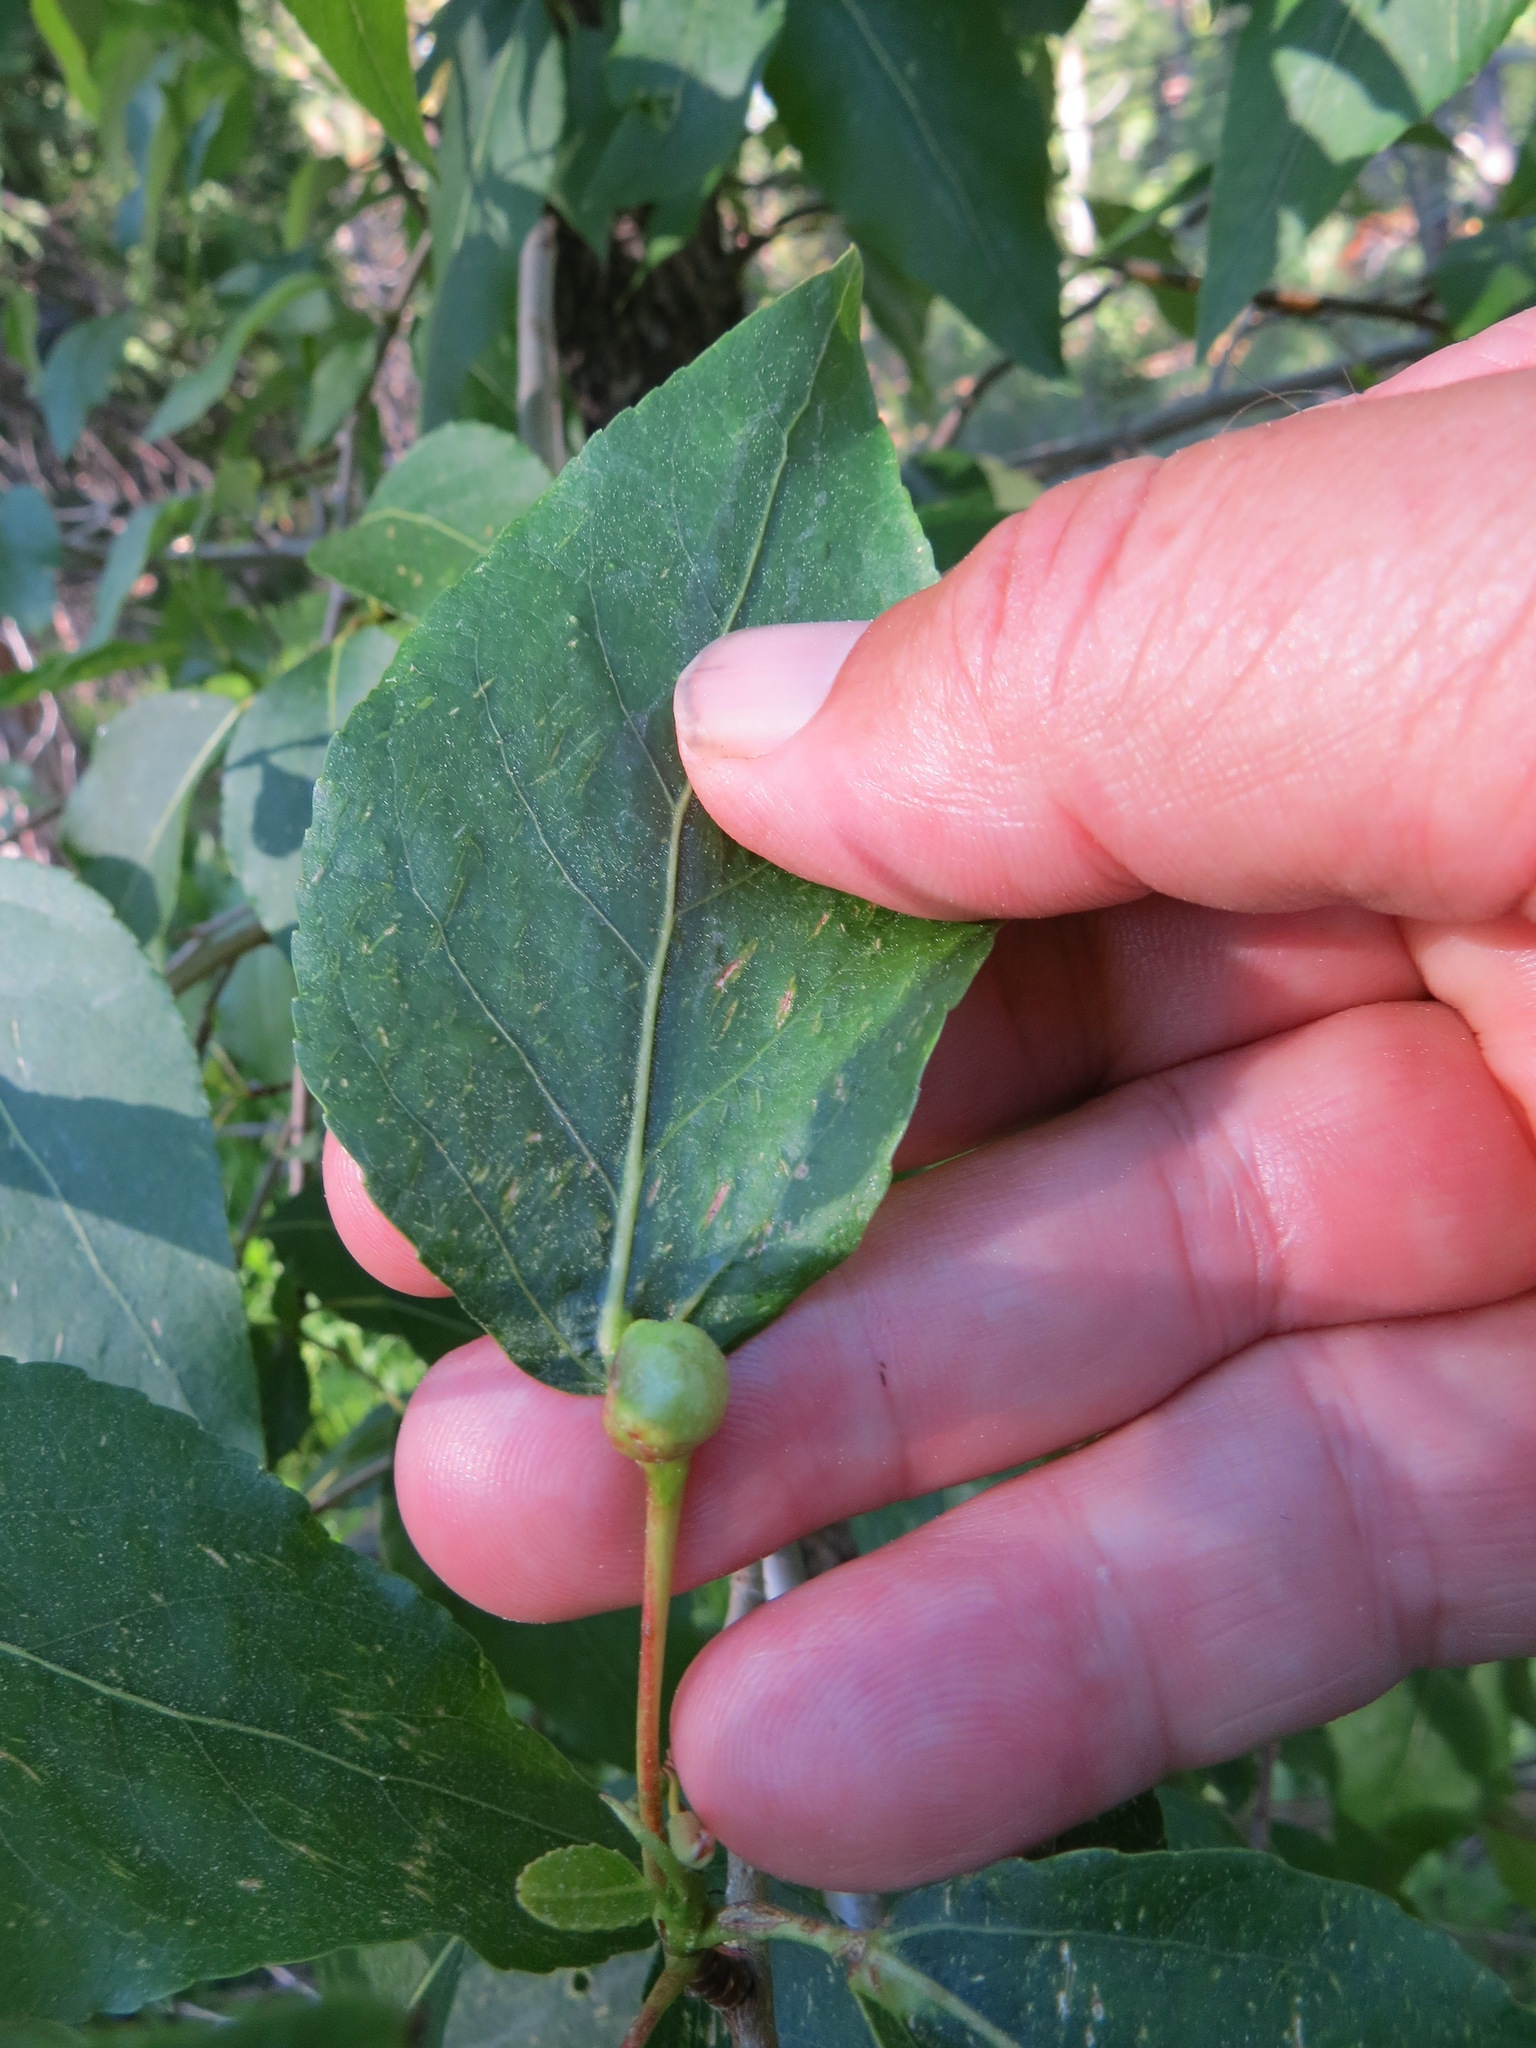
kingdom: Animalia
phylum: Arthropoda
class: Insecta
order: Hemiptera
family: Aphididae
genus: Pemphigus
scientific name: Pemphigus populi-globuli
